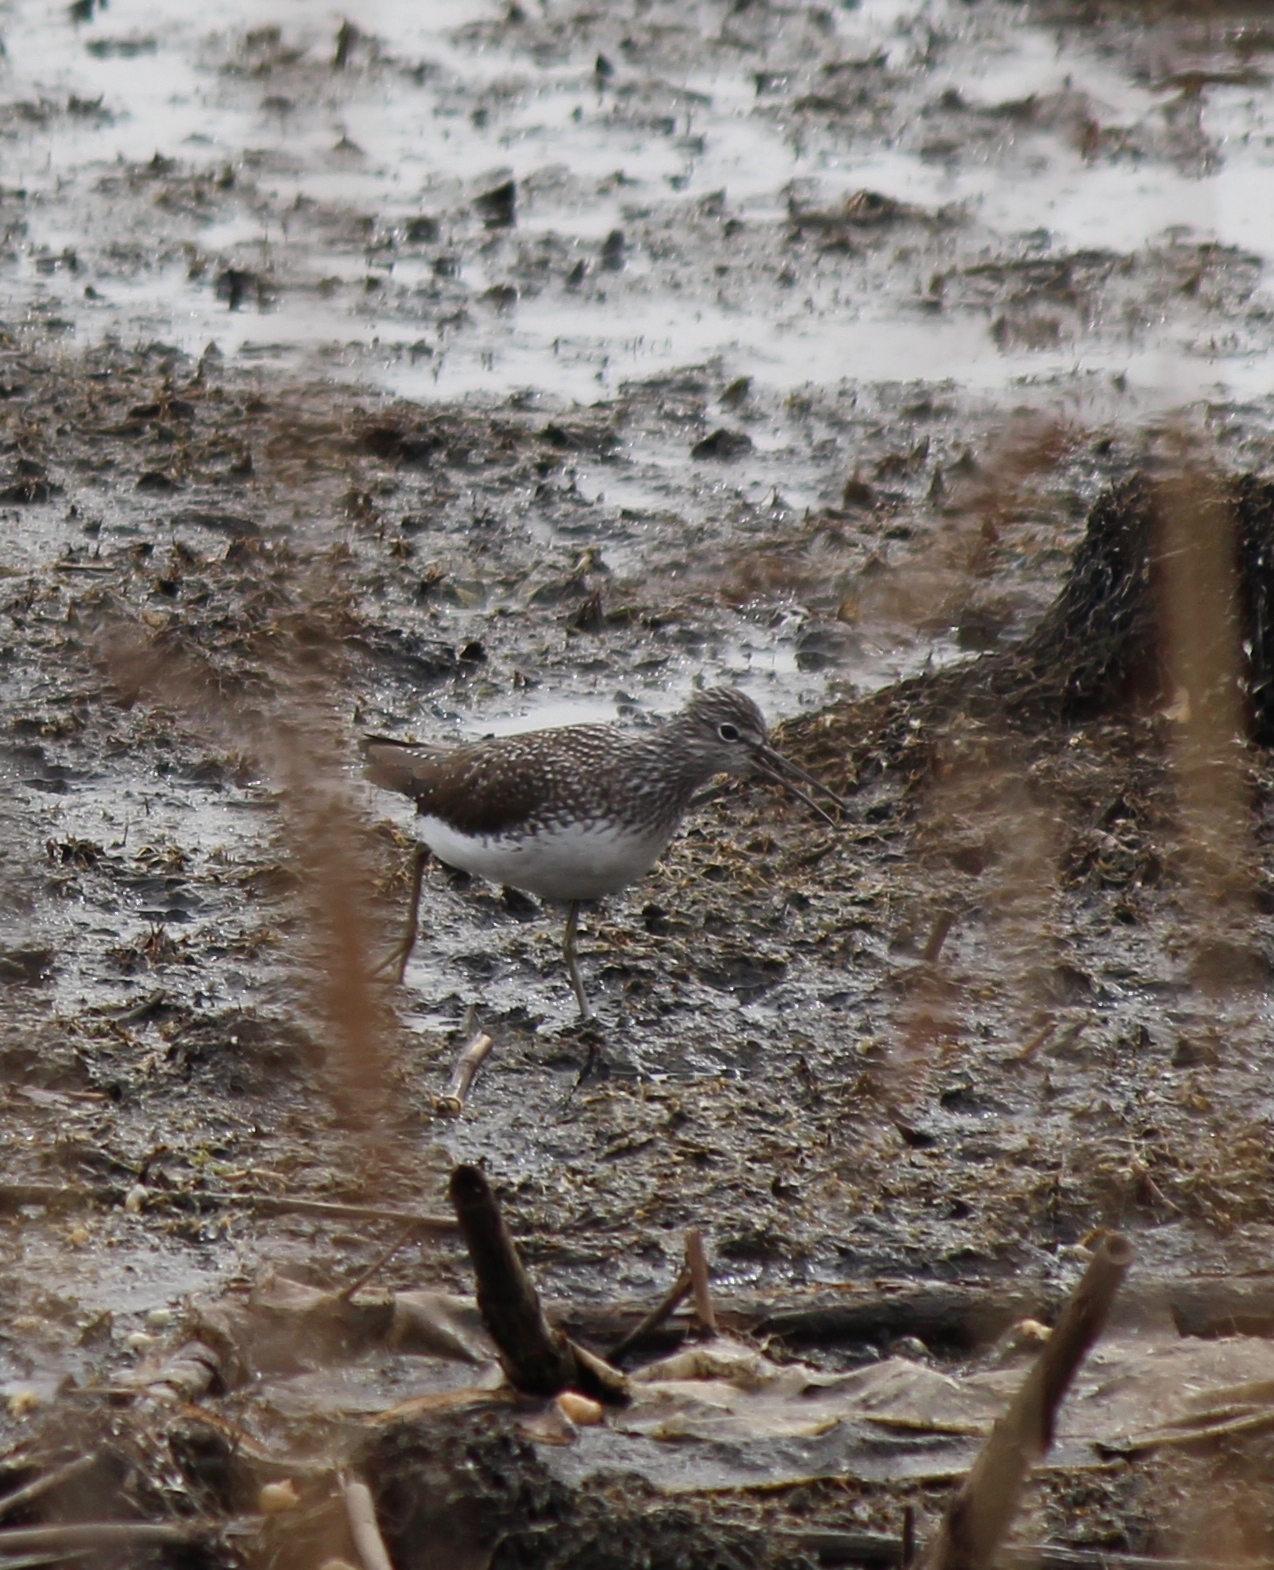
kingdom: Animalia
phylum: Chordata
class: Aves
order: Charadriiformes
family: Scolopacidae
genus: Tringa
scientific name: Tringa ochropus
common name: Green sandpiper
